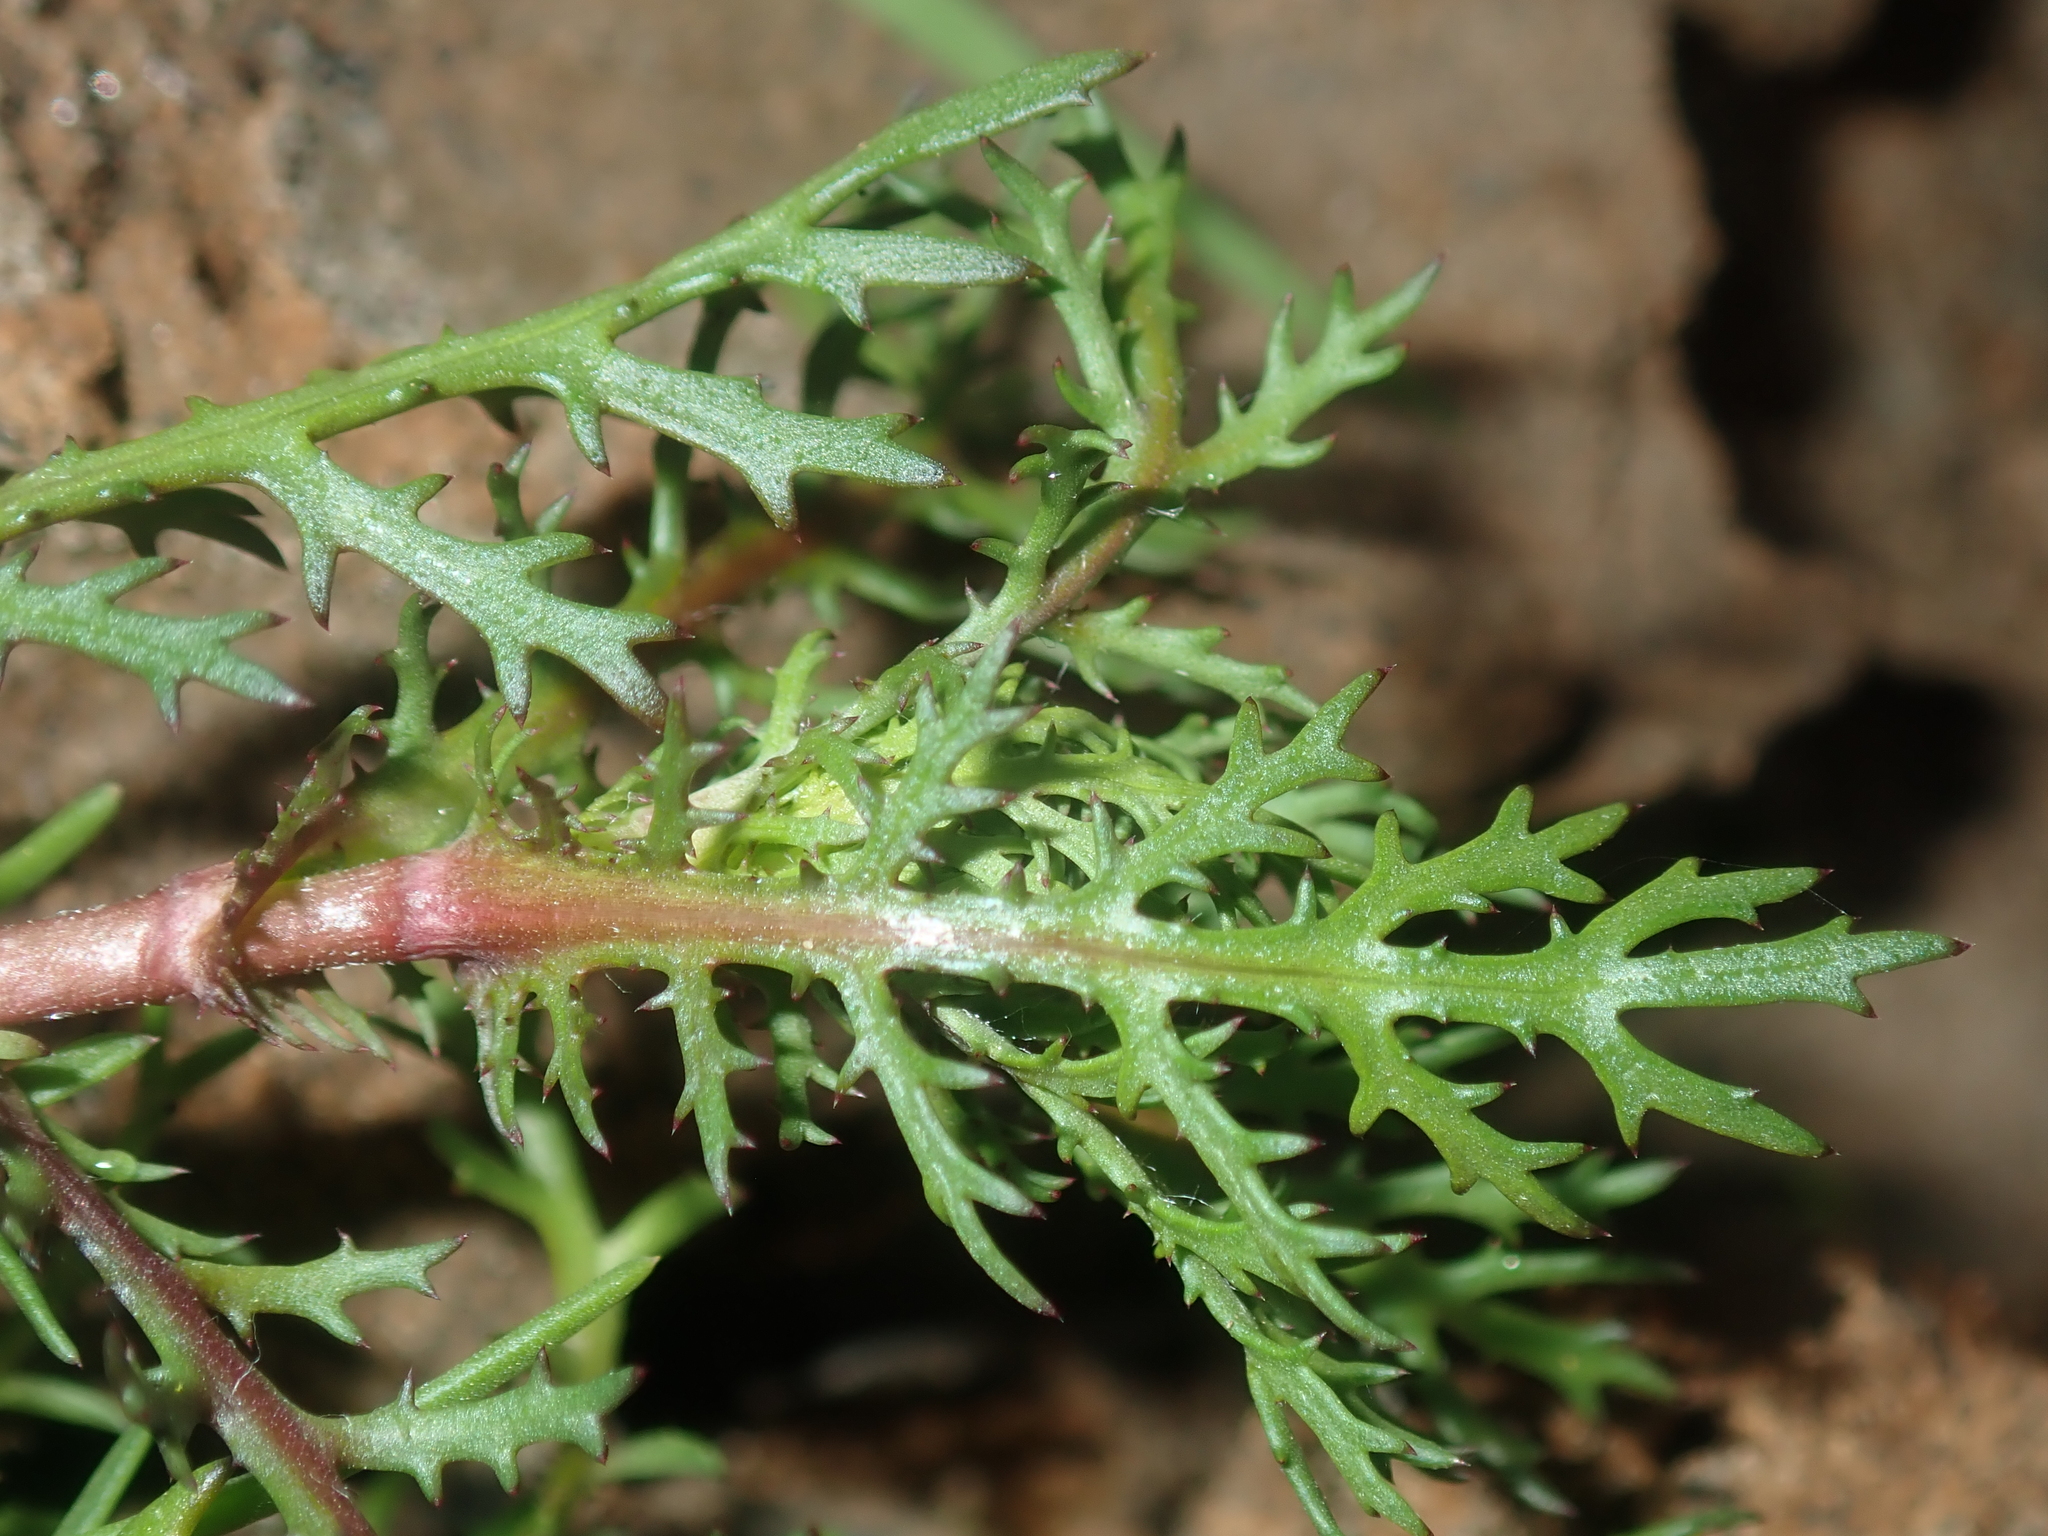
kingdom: Plantae
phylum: Tracheophyta
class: Magnoliopsida
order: Asterales
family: Asteraceae
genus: Cotula
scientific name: Cotula bipinnata
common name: Ferny buttonweed
